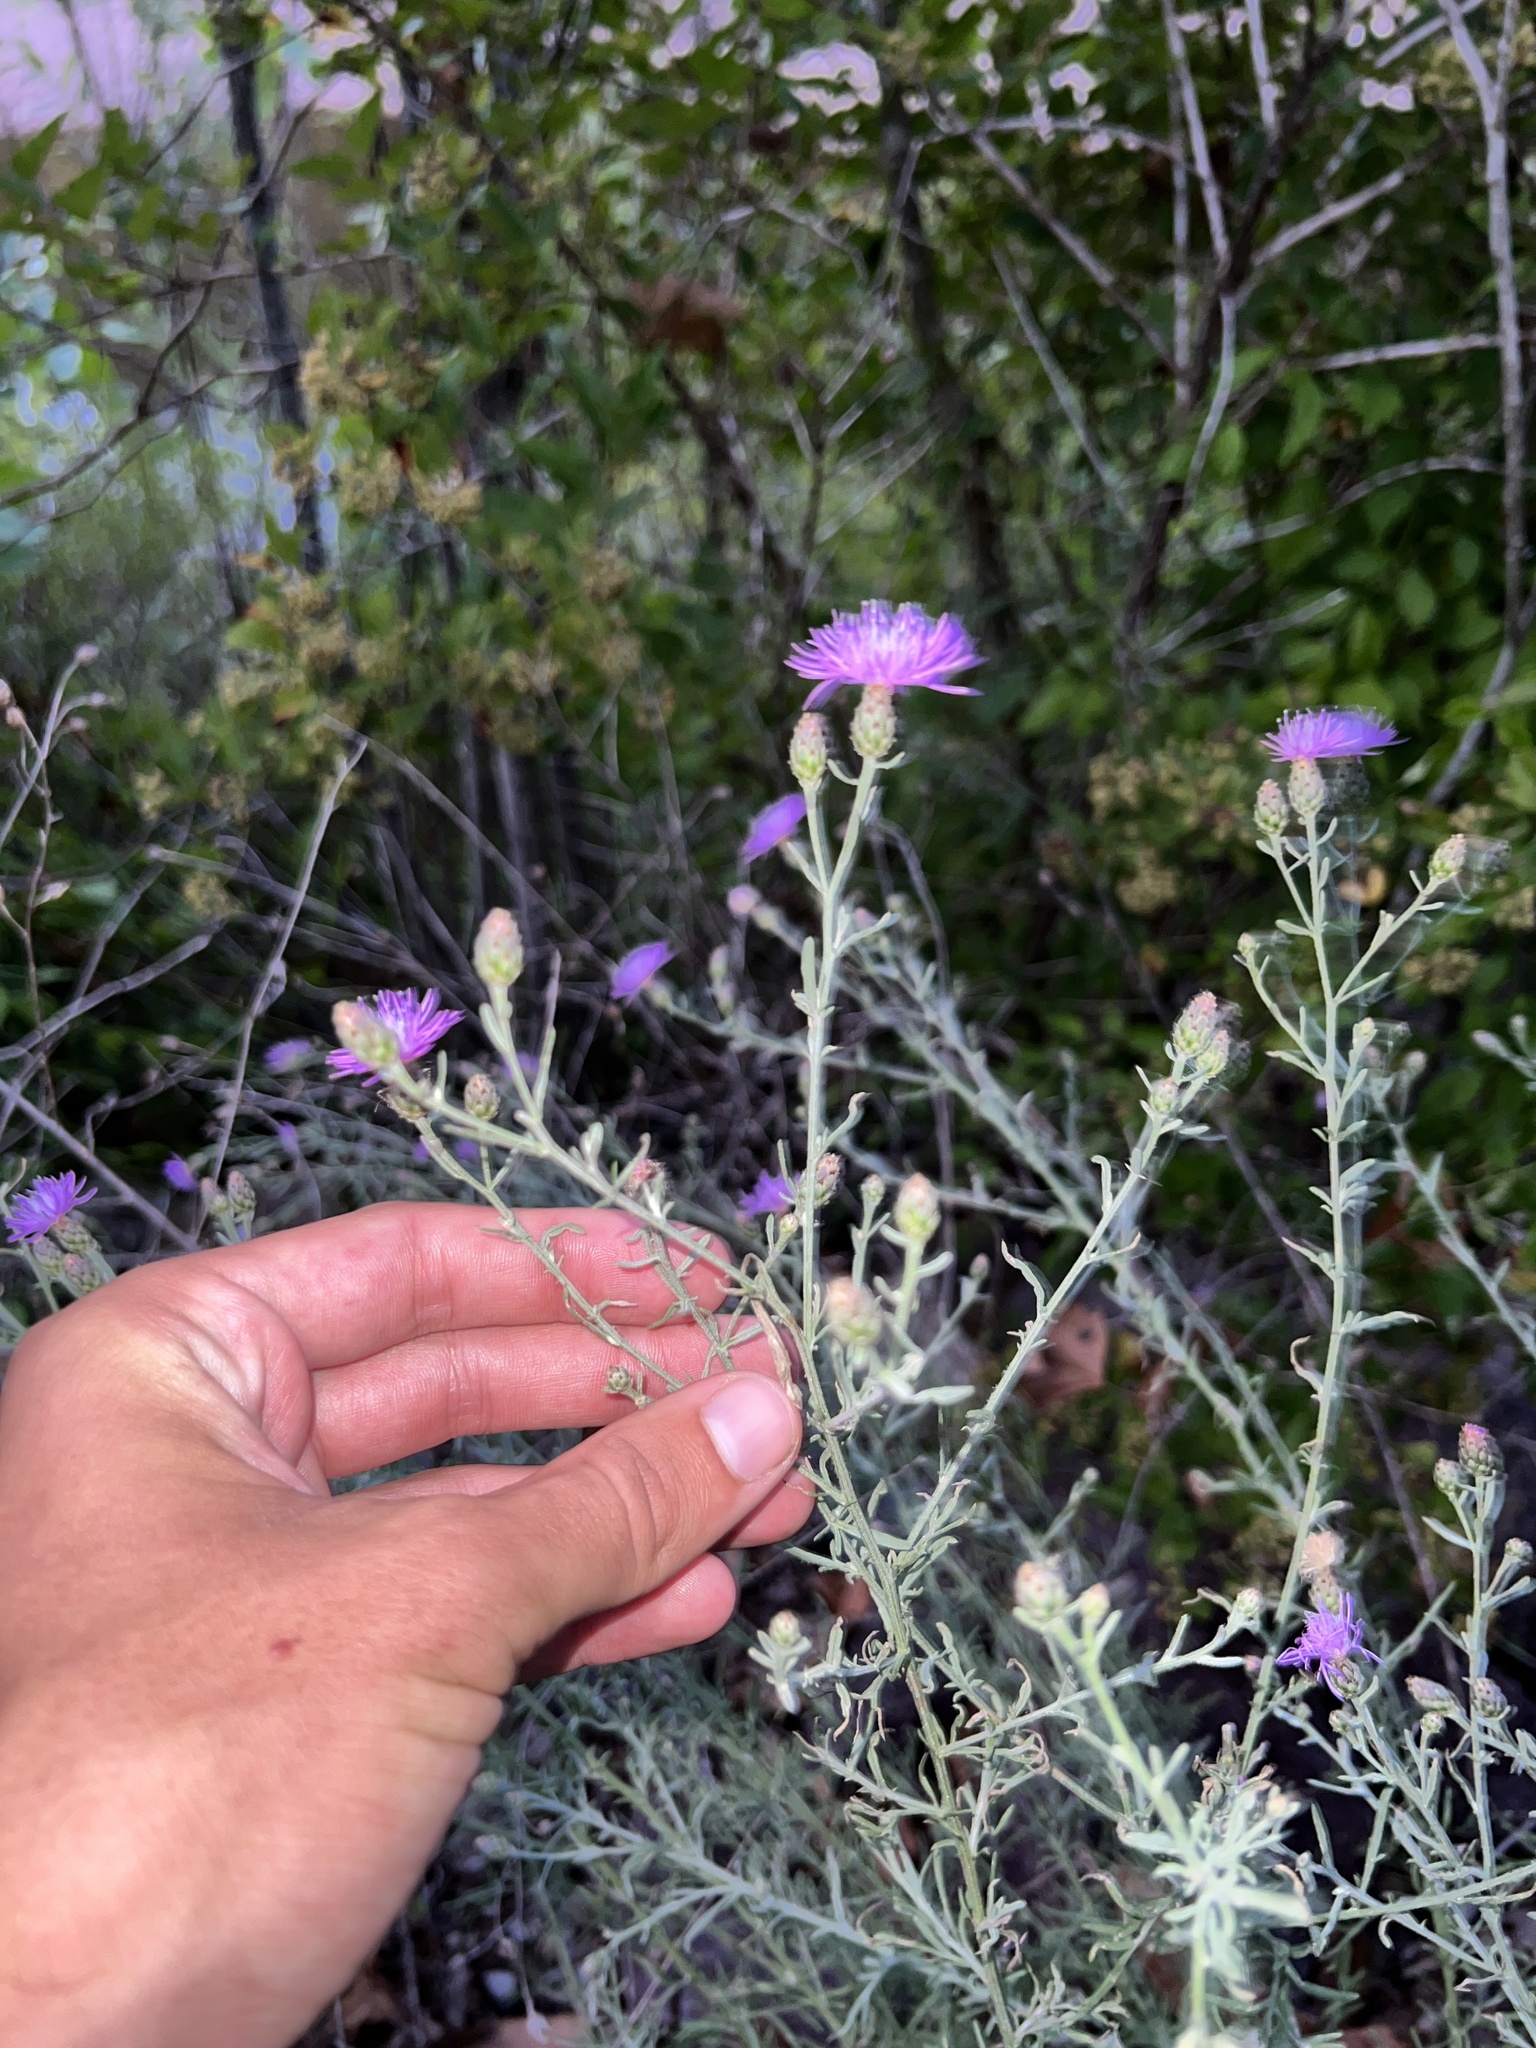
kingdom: Plantae
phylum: Tracheophyta
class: Magnoliopsida
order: Asterales
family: Asteraceae
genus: Centaurea
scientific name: Centaurea stoebe
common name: Spotted knapweed
